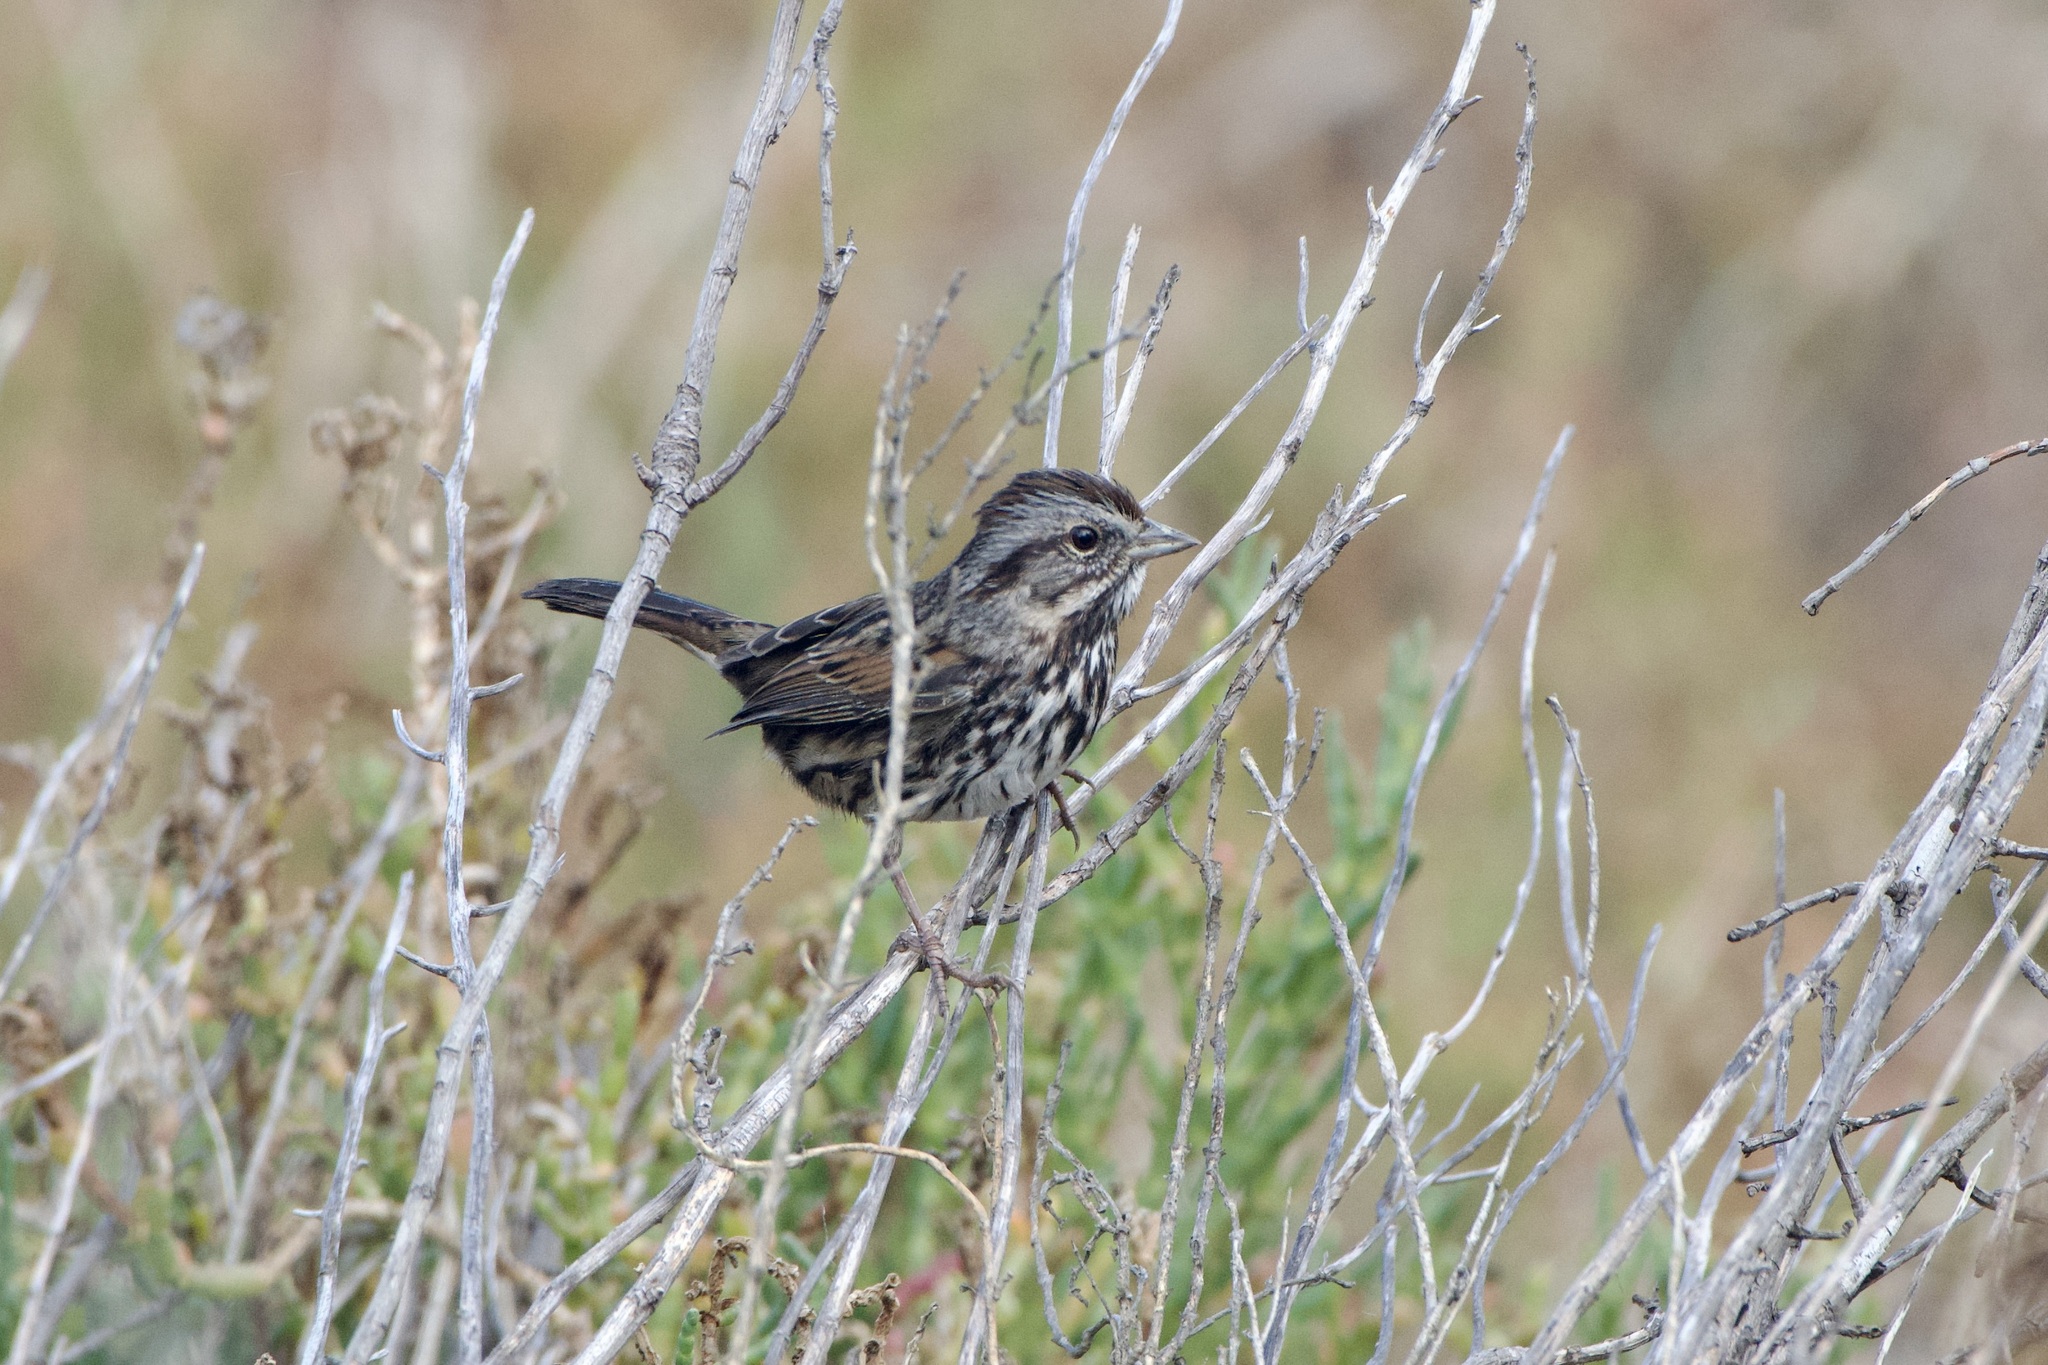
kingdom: Animalia
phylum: Chordata
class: Aves
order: Passeriformes
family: Passerellidae
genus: Melospiza
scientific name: Melospiza melodia
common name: Song sparrow
